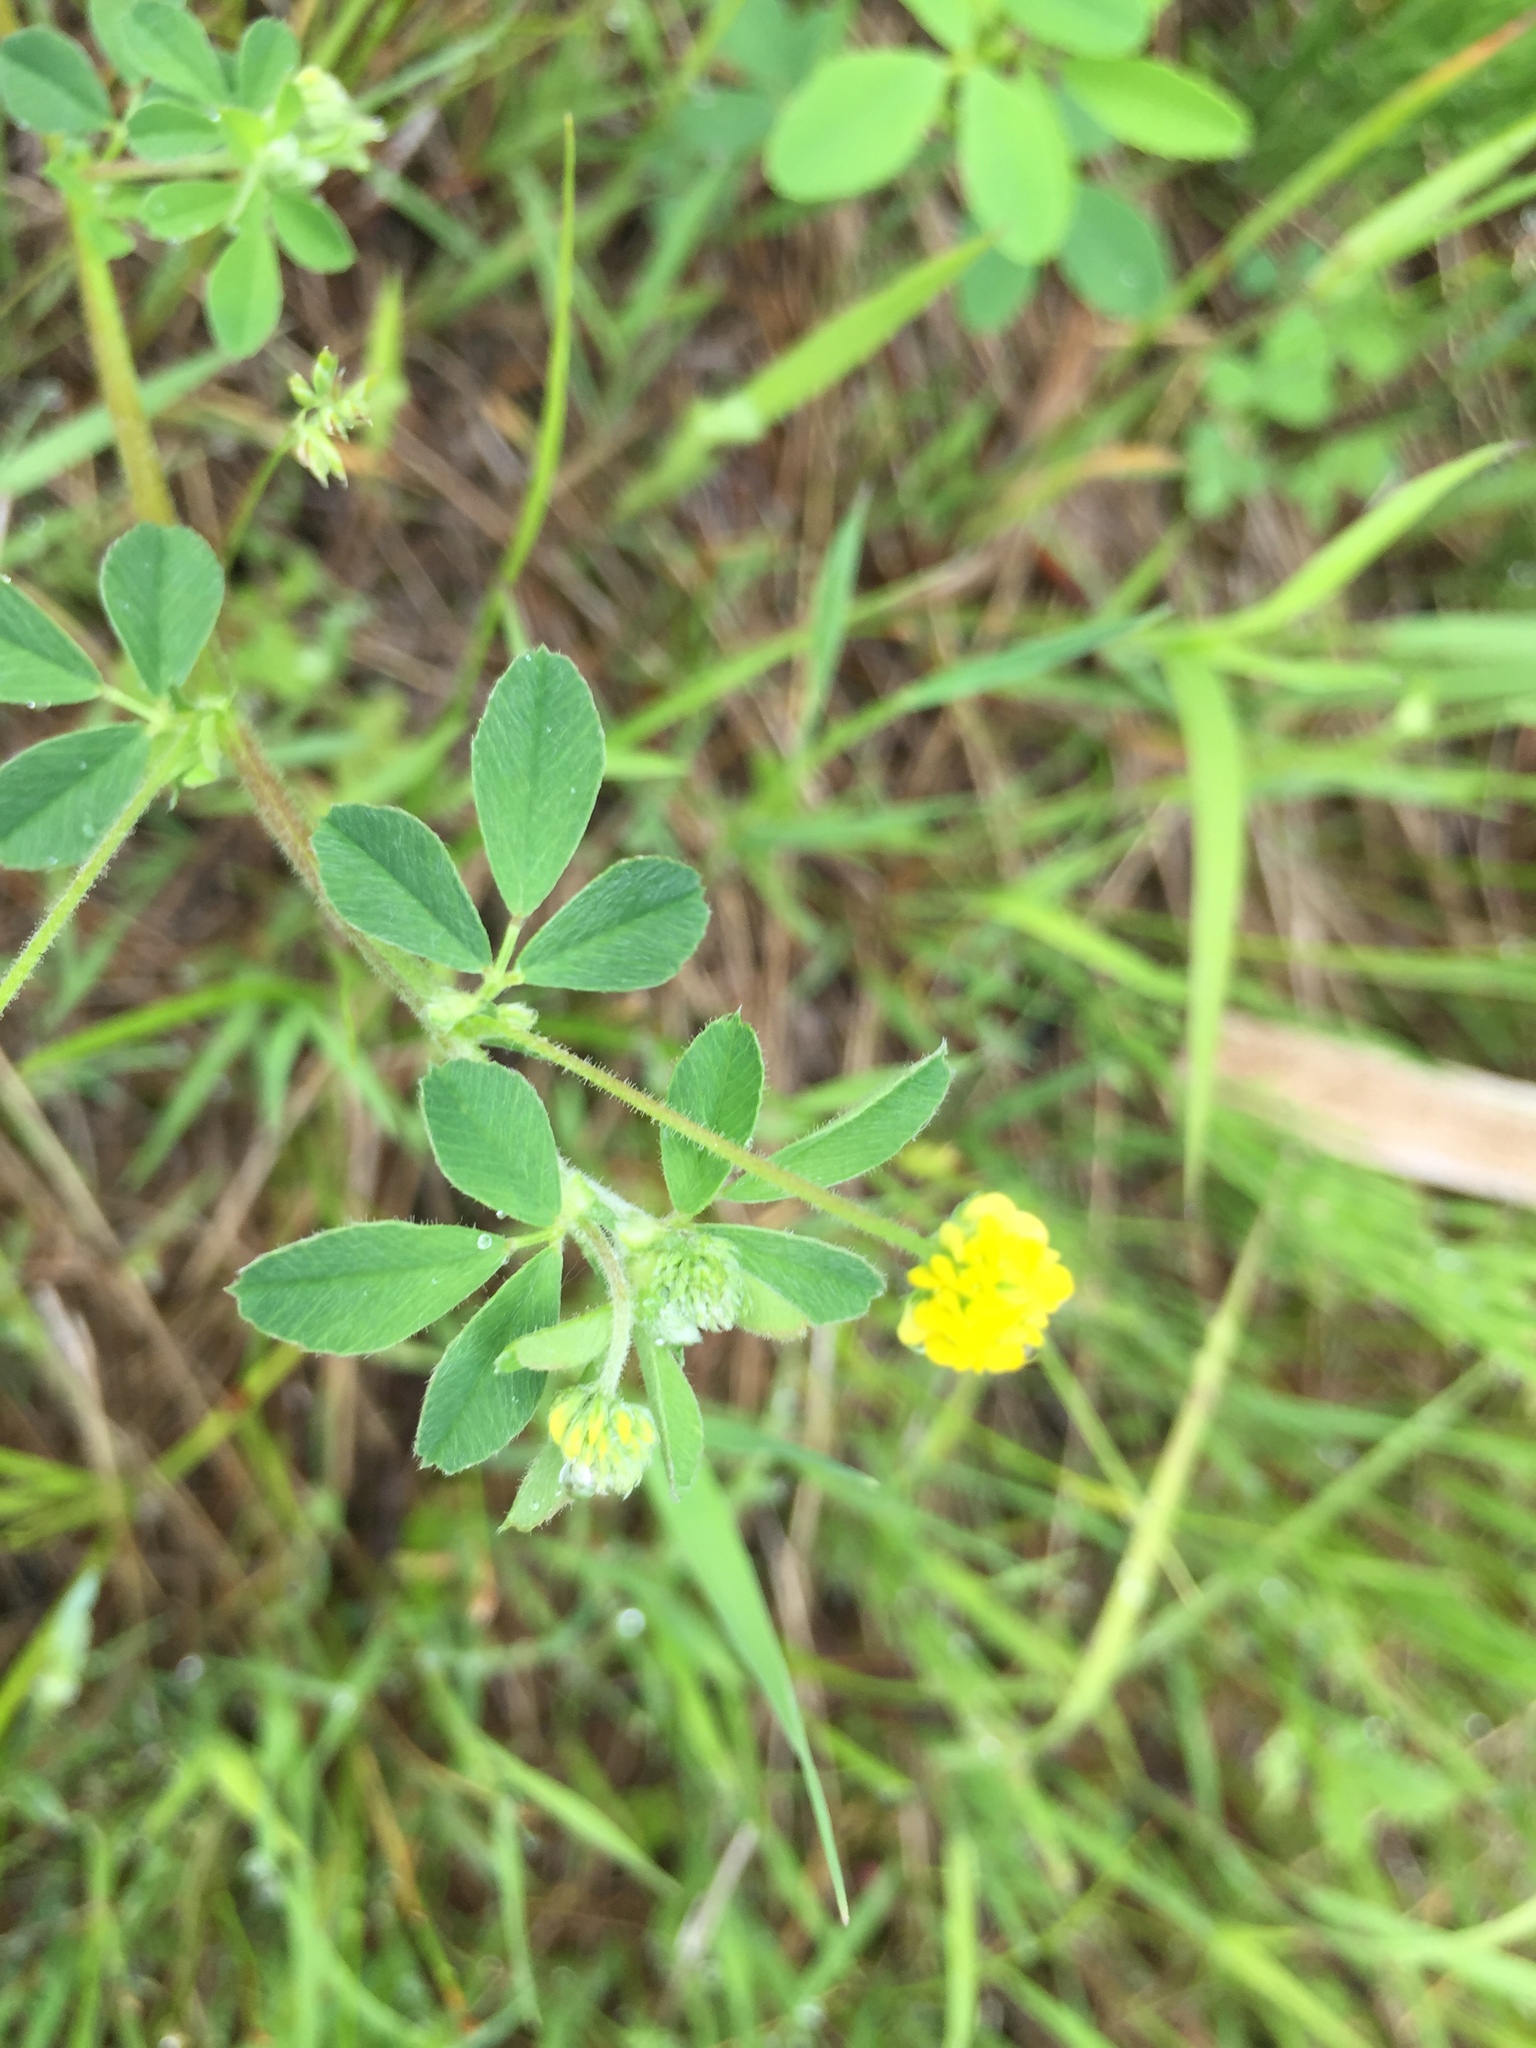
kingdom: Plantae
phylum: Tracheophyta
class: Magnoliopsida
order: Fabales
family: Fabaceae
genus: Medicago
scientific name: Medicago lupulina
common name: Black medick
